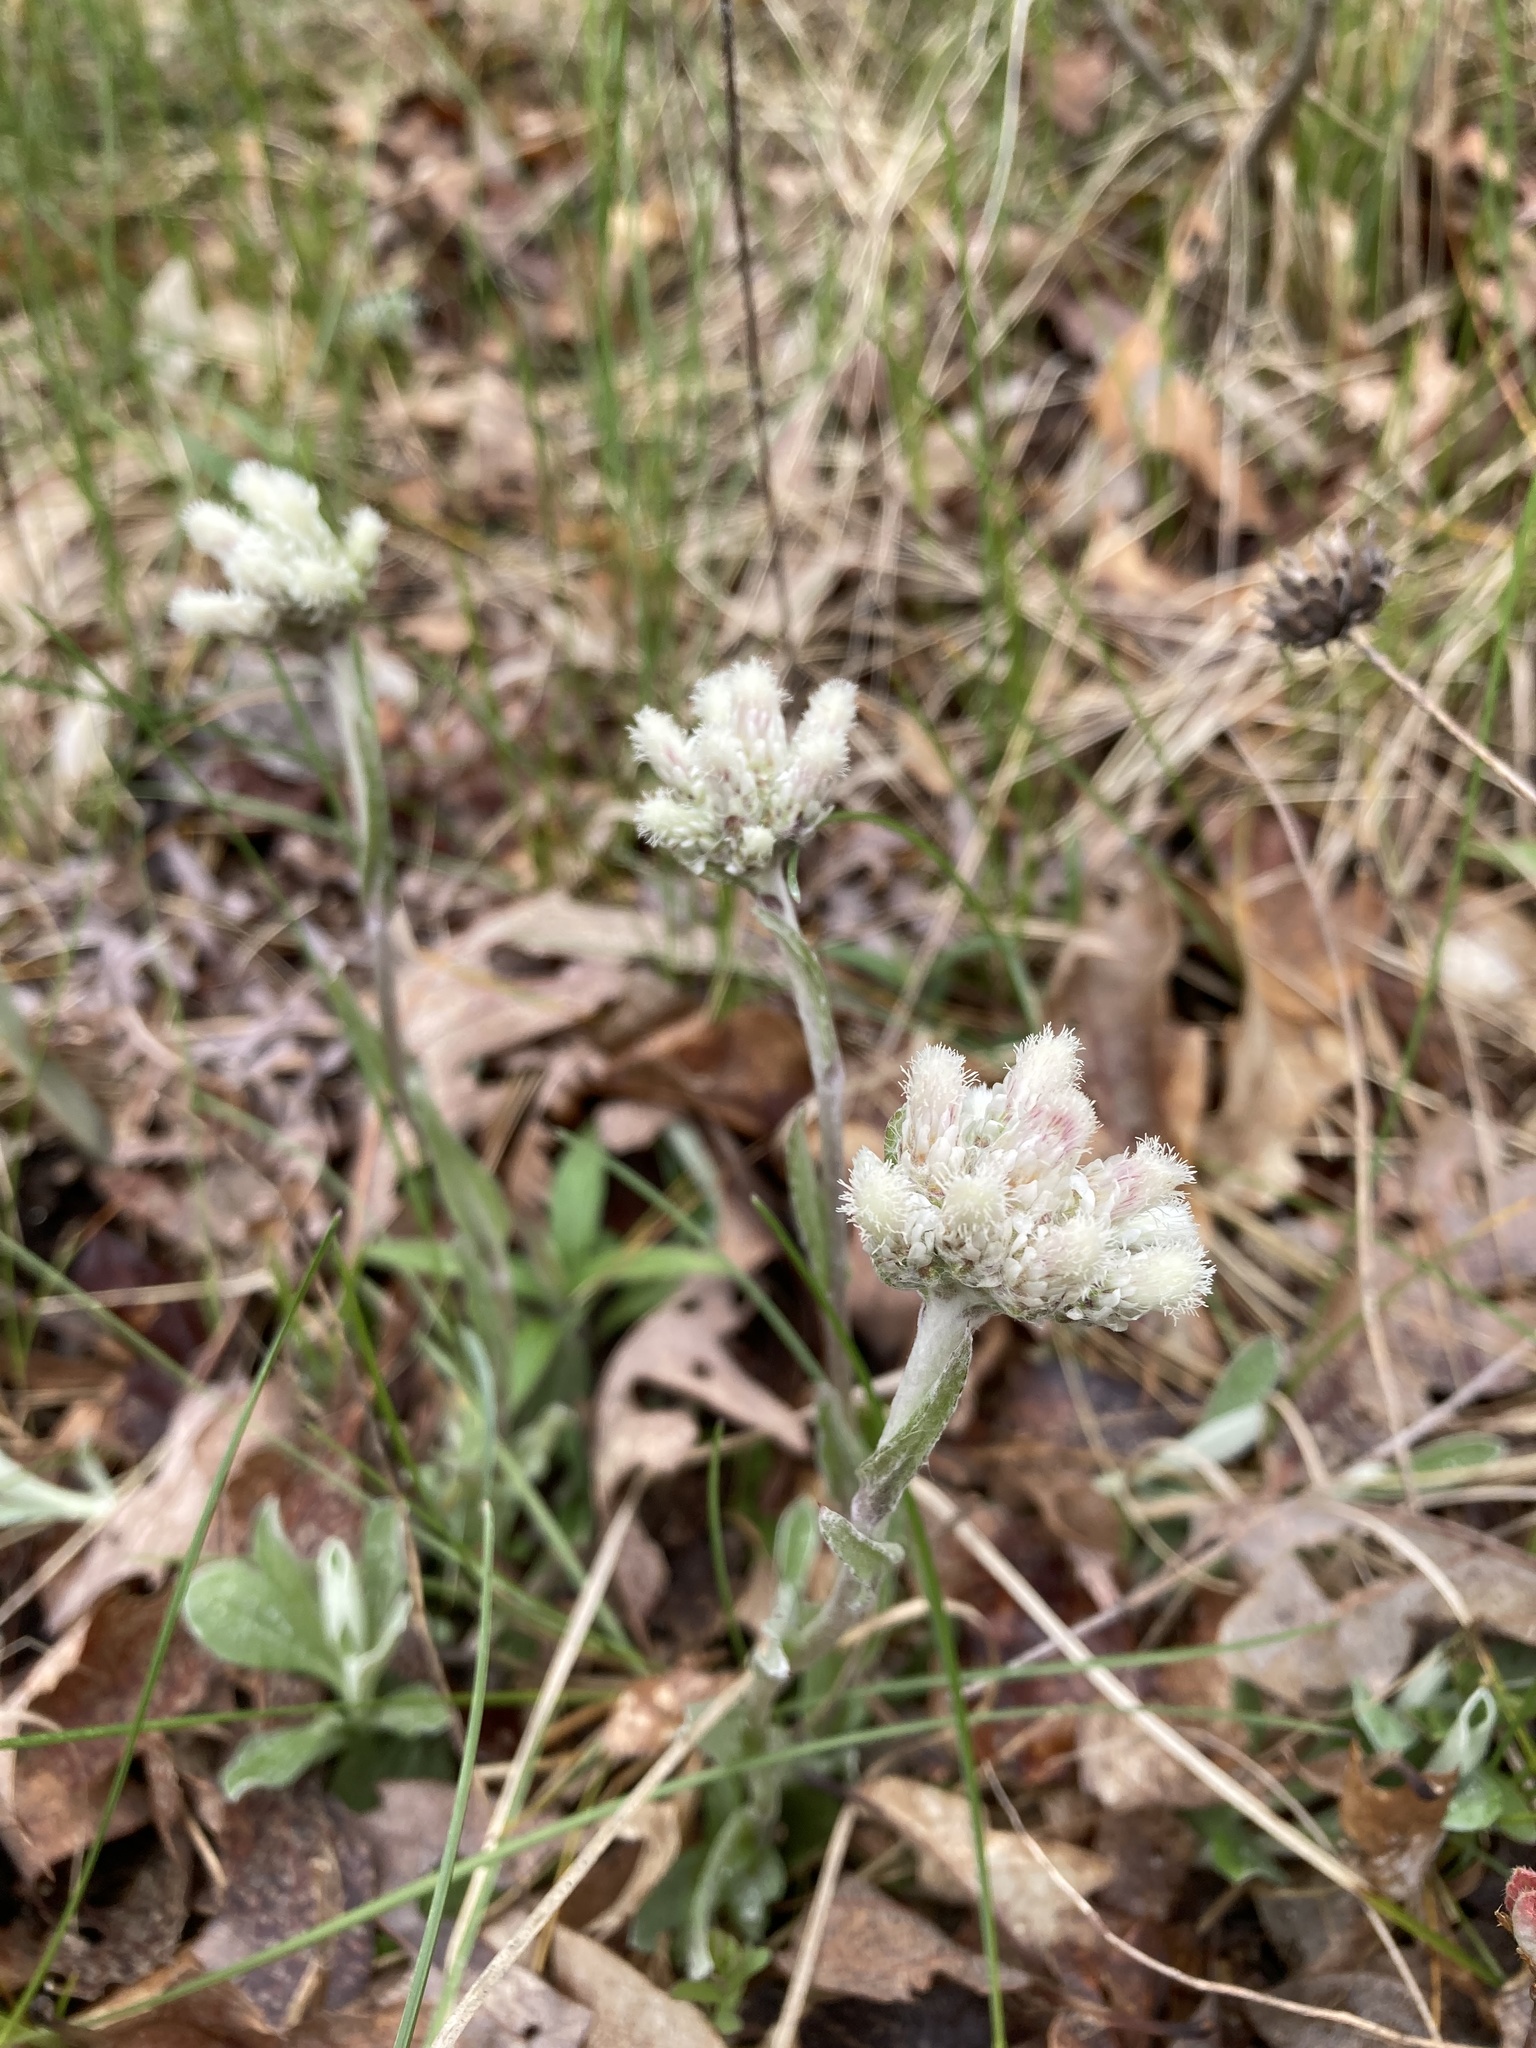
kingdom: Plantae
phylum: Tracheophyta
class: Magnoliopsida
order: Asterales
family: Asteraceae
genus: Antennaria
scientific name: Antennaria neglecta
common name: Field pussytoes
